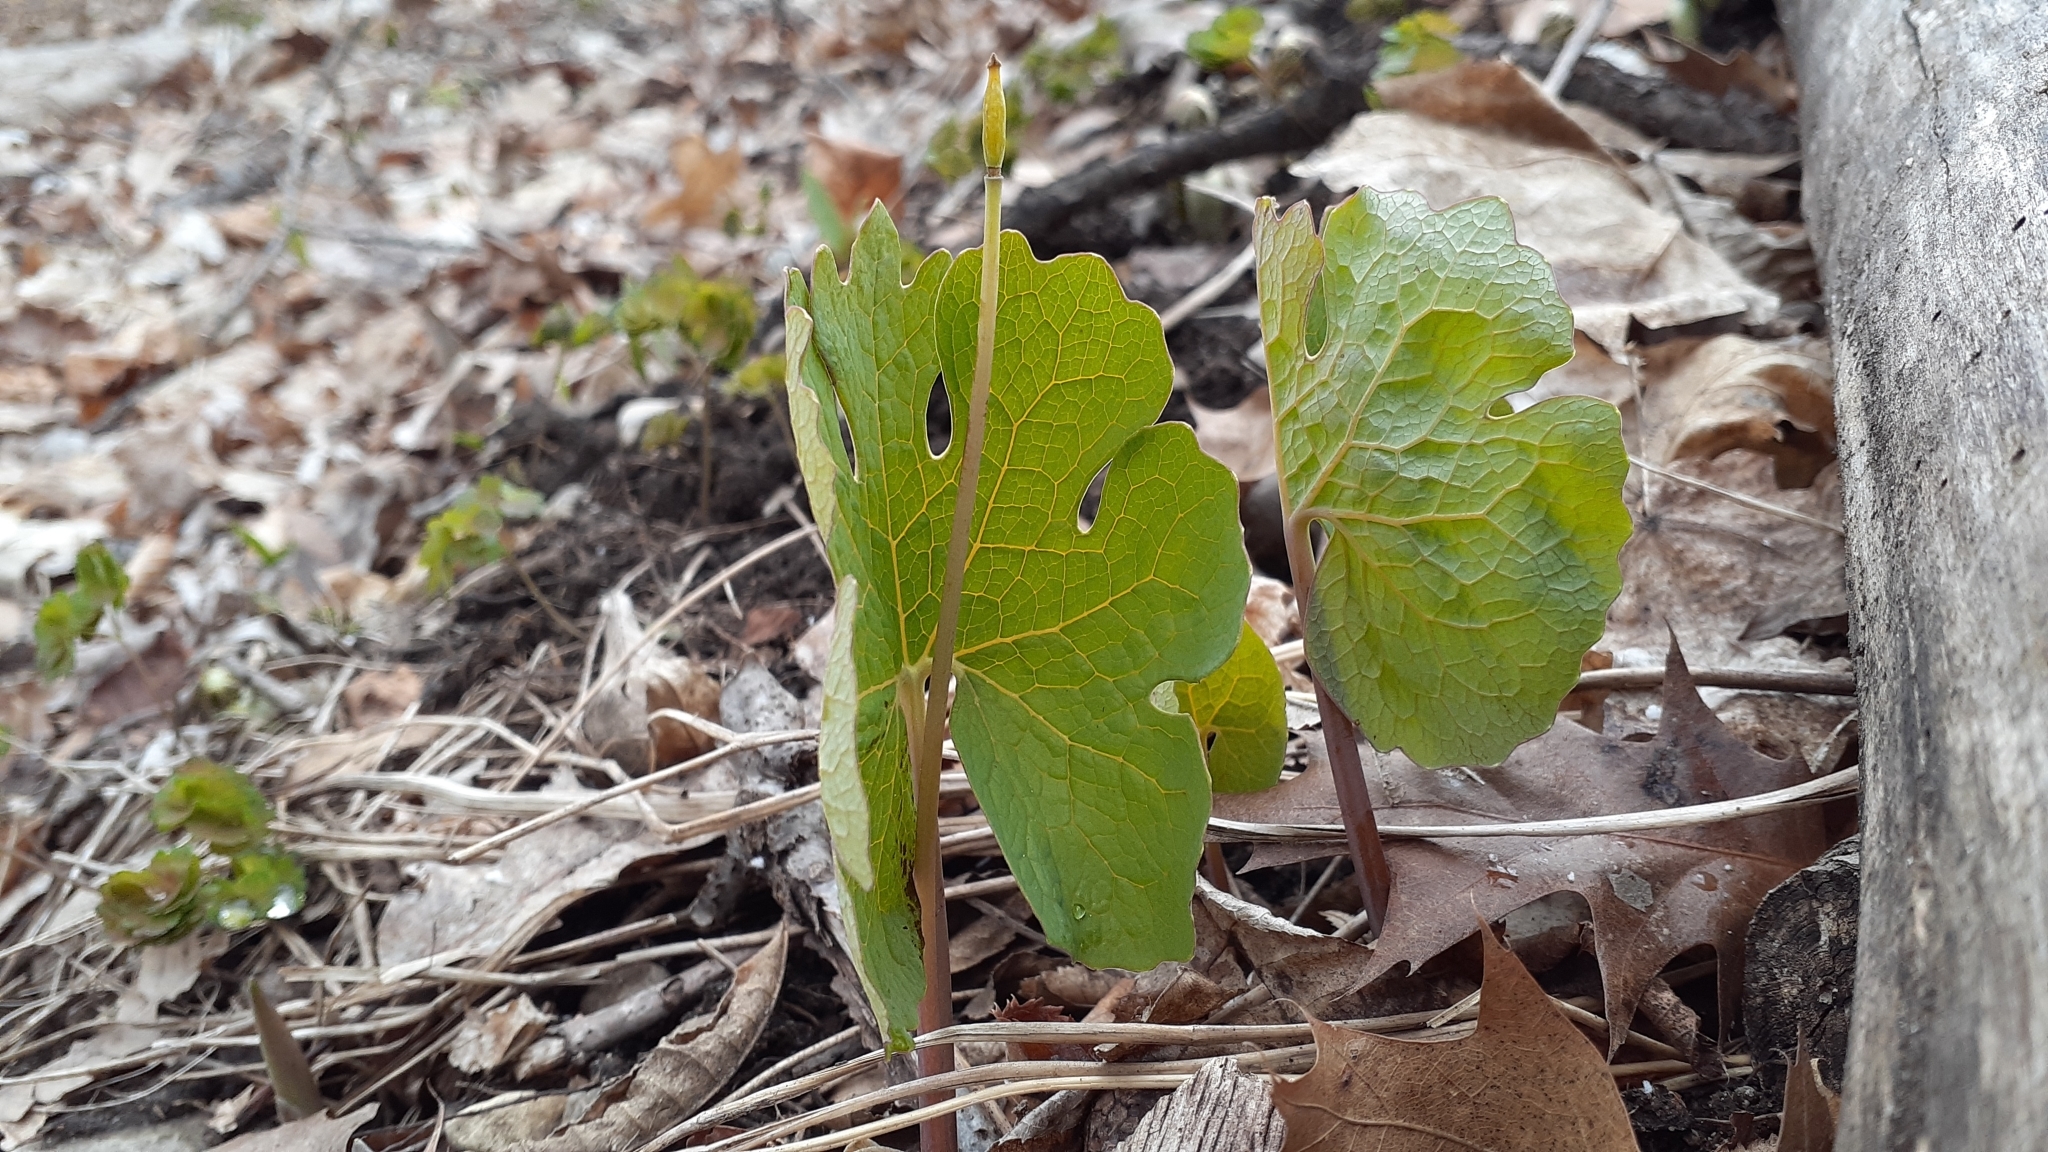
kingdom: Plantae
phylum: Tracheophyta
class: Magnoliopsida
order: Ranunculales
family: Papaveraceae
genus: Sanguinaria
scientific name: Sanguinaria canadensis
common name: Bloodroot
